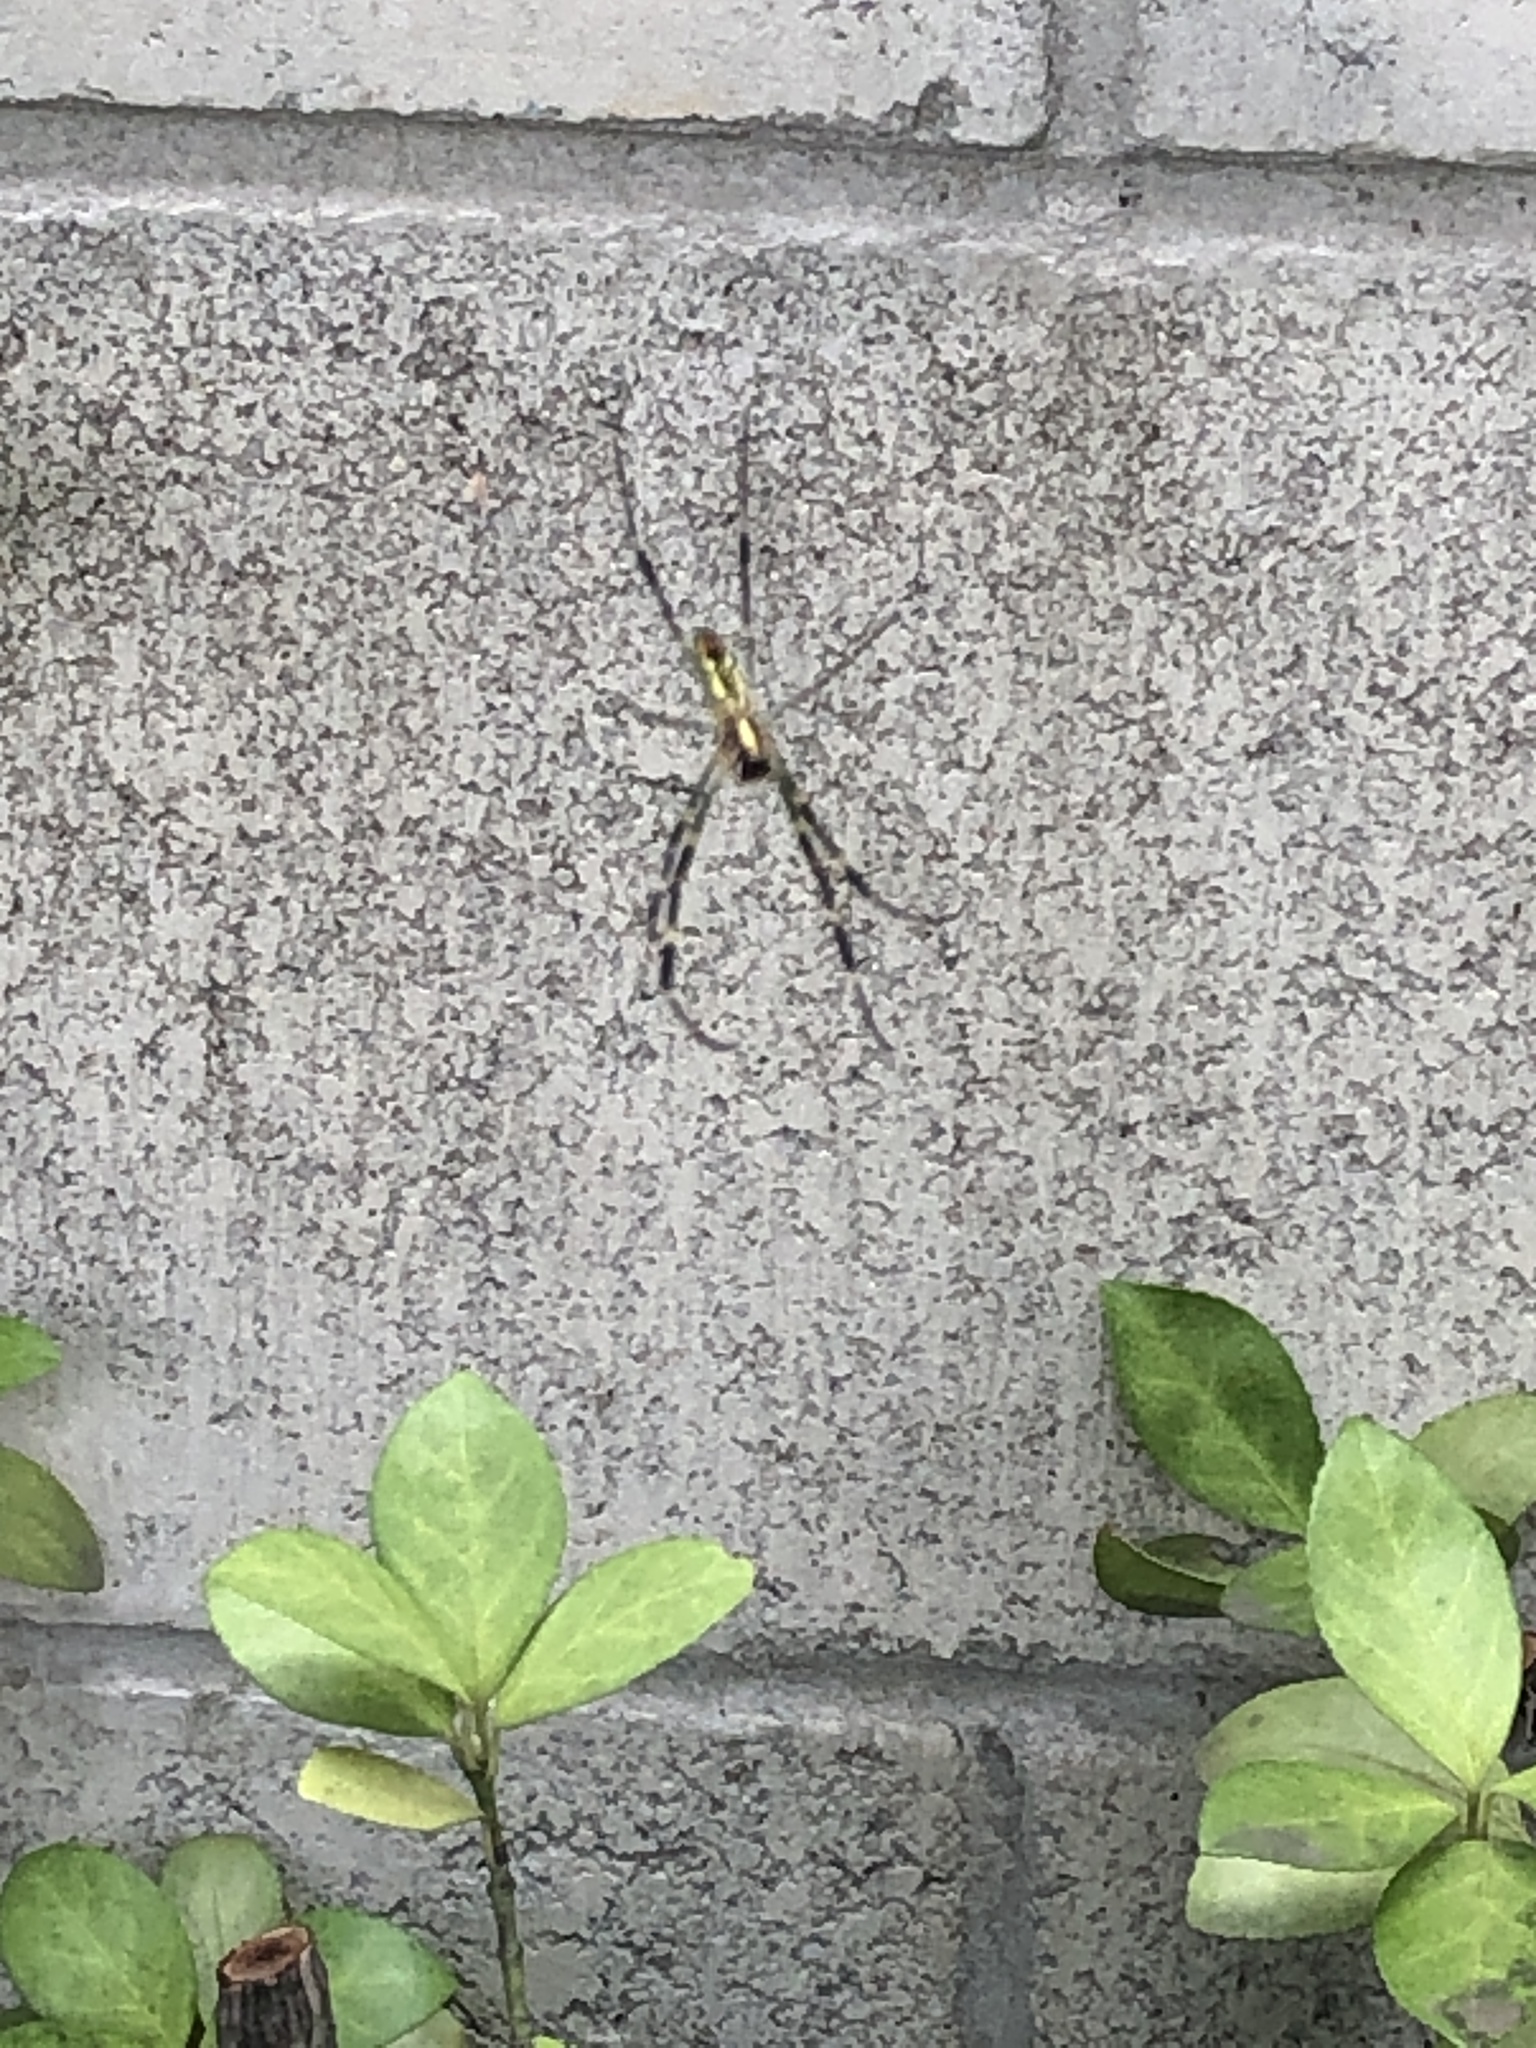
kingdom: Animalia
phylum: Arthropoda
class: Arachnida
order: Araneae
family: Araneidae
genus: Trichonephila
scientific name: Trichonephila clavata
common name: Jorō spider
